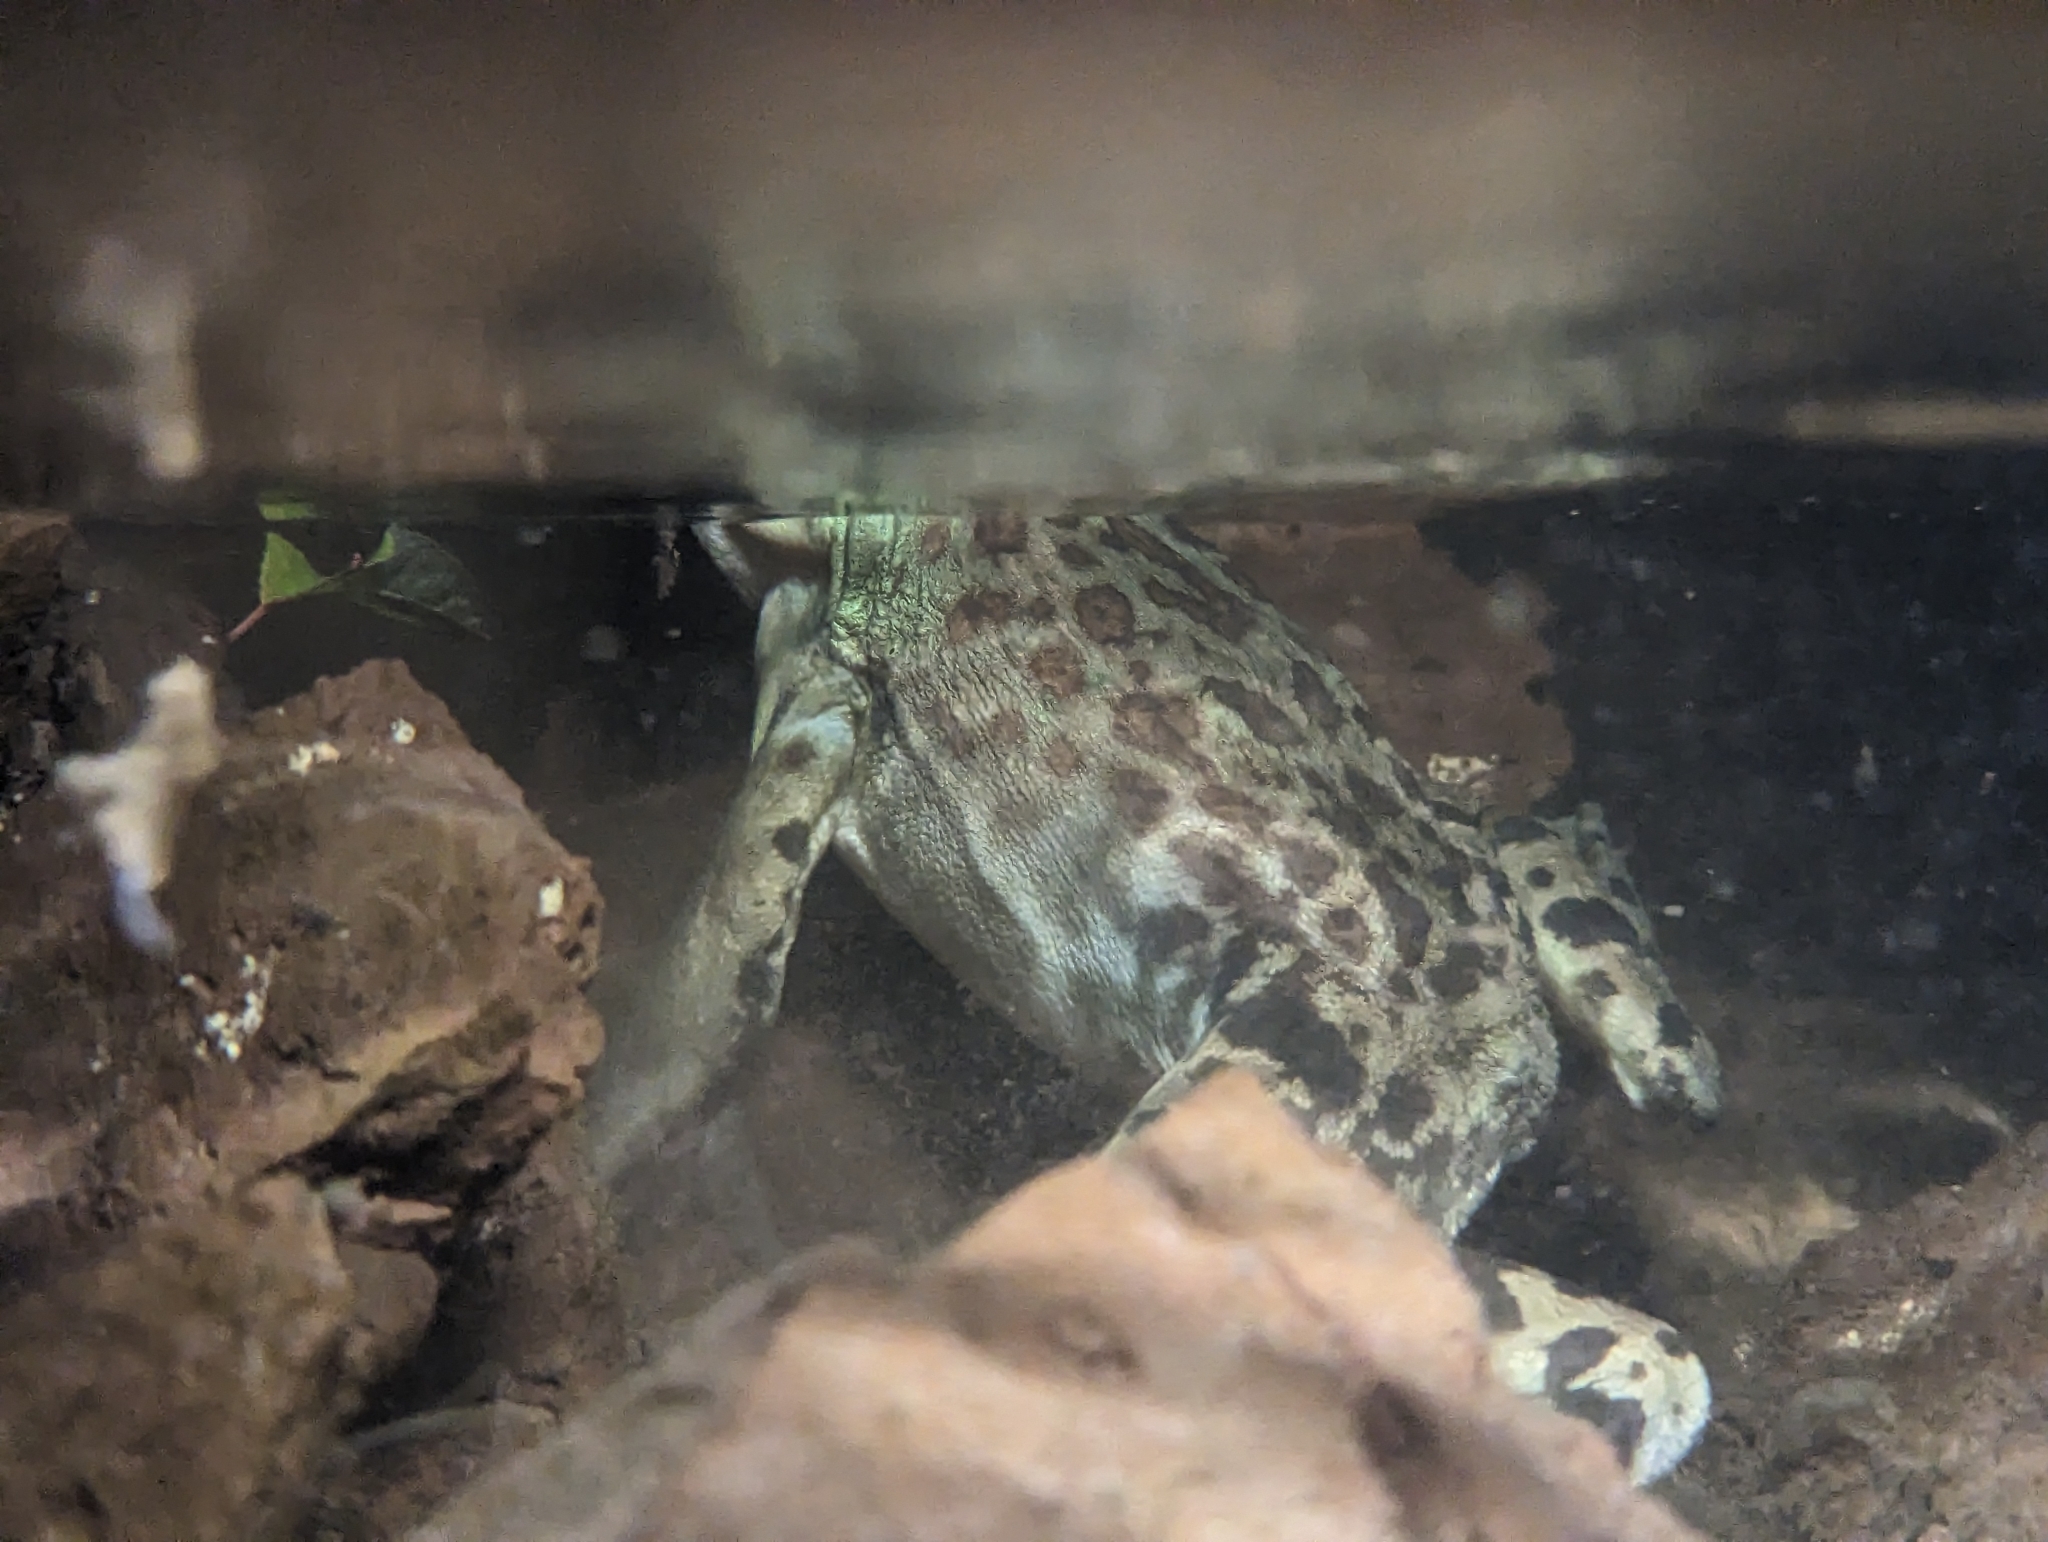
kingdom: Animalia
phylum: Chordata
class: Amphibia
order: Anura
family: Ranidae
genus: Lithobates
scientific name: Lithobates catesbeianus
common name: American bullfrog
